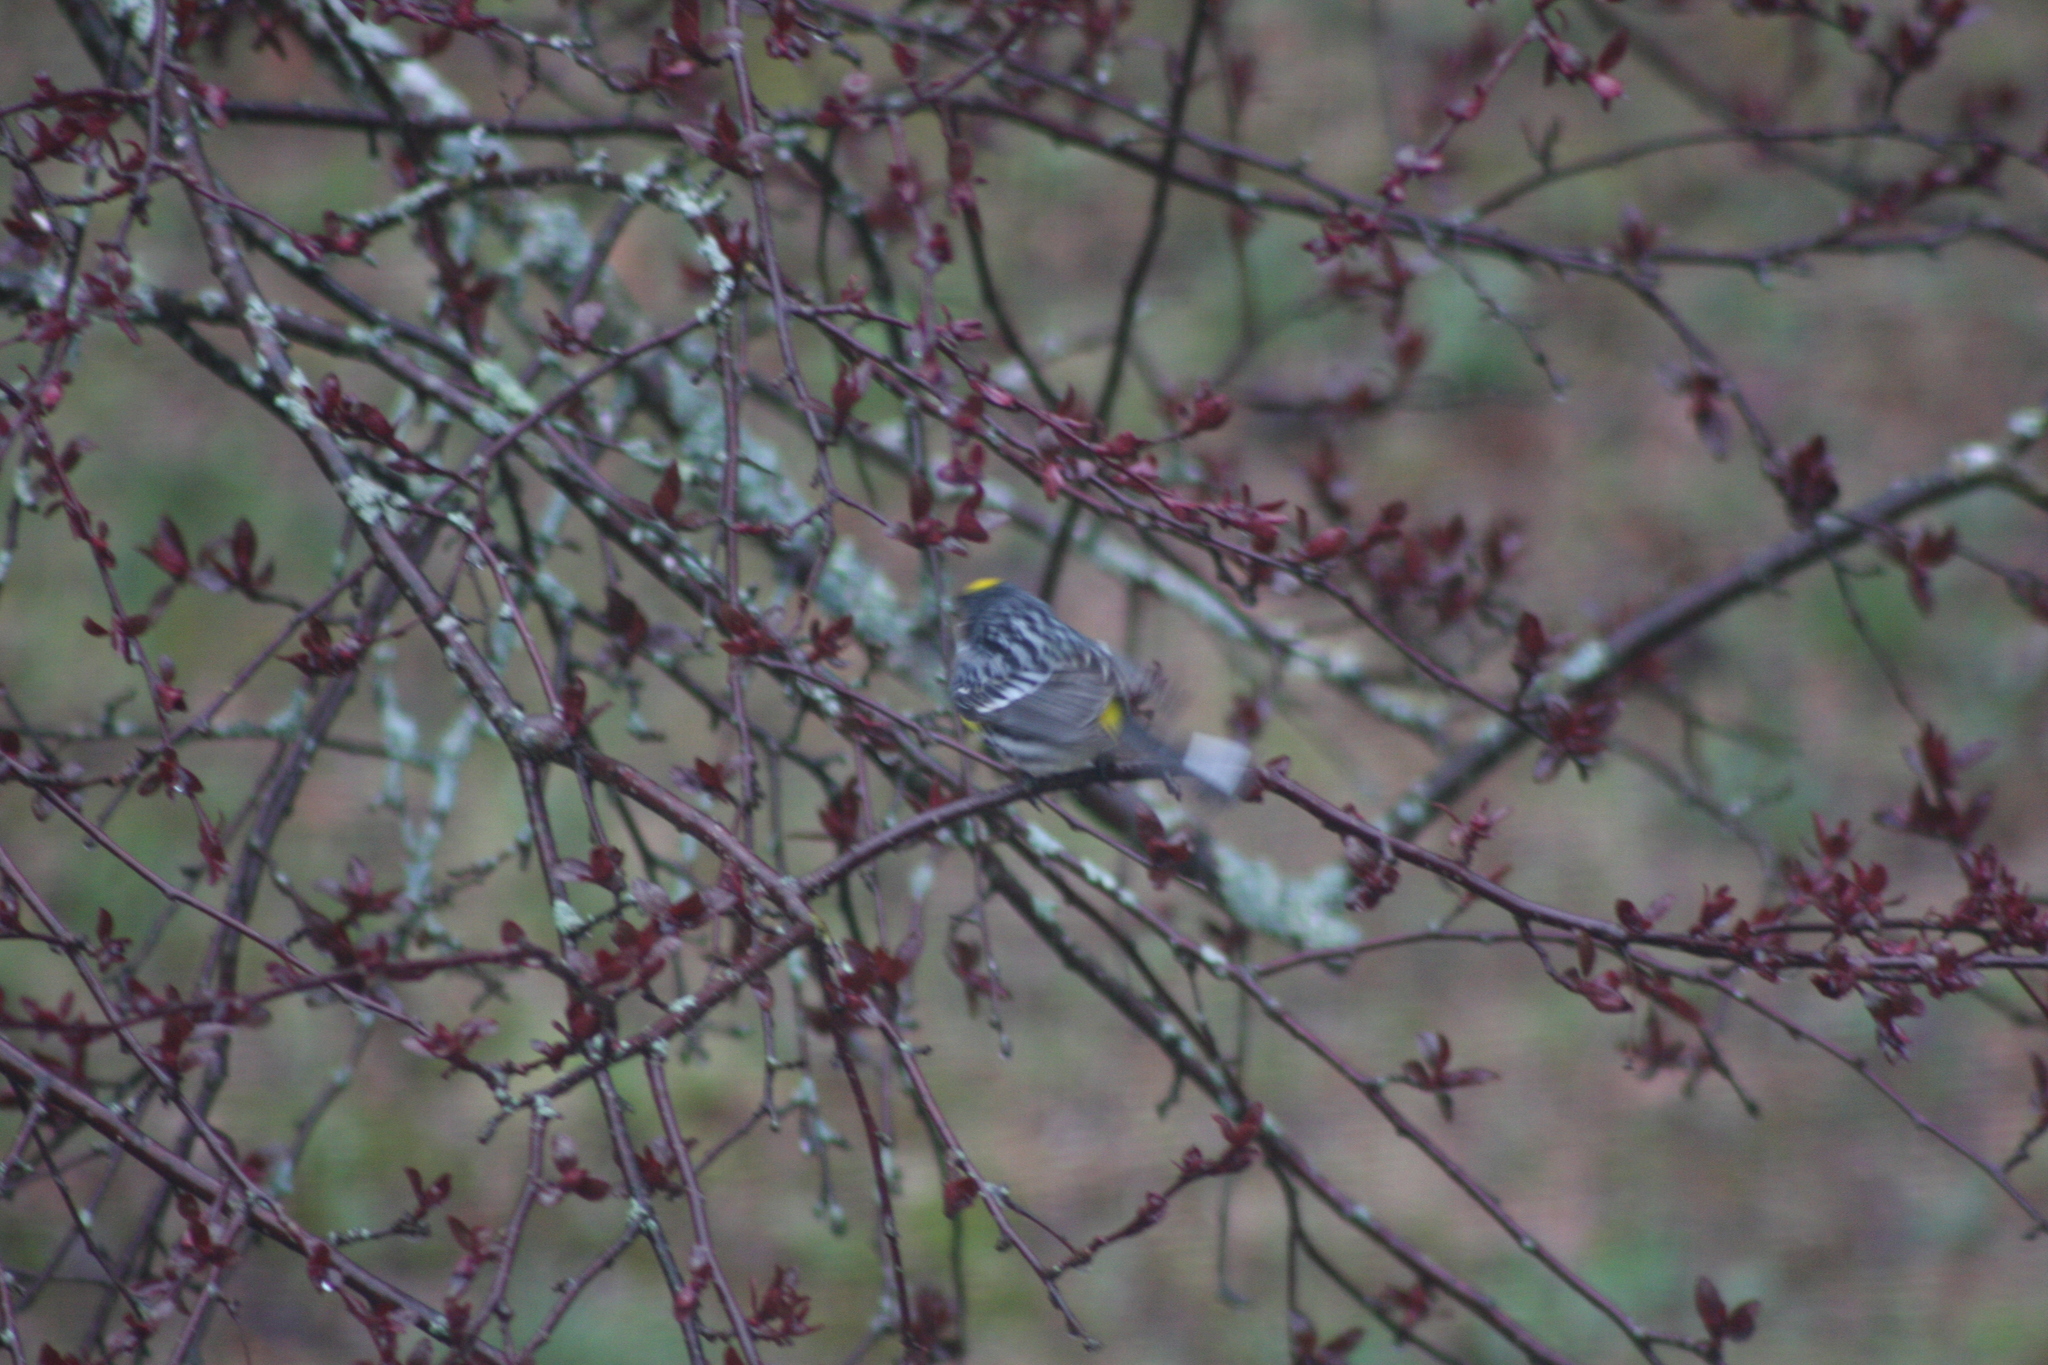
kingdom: Animalia
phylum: Chordata
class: Aves
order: Passeriformes
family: Parulidae
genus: Setophaga
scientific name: Setophaga coronata
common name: Myrtle warbler
